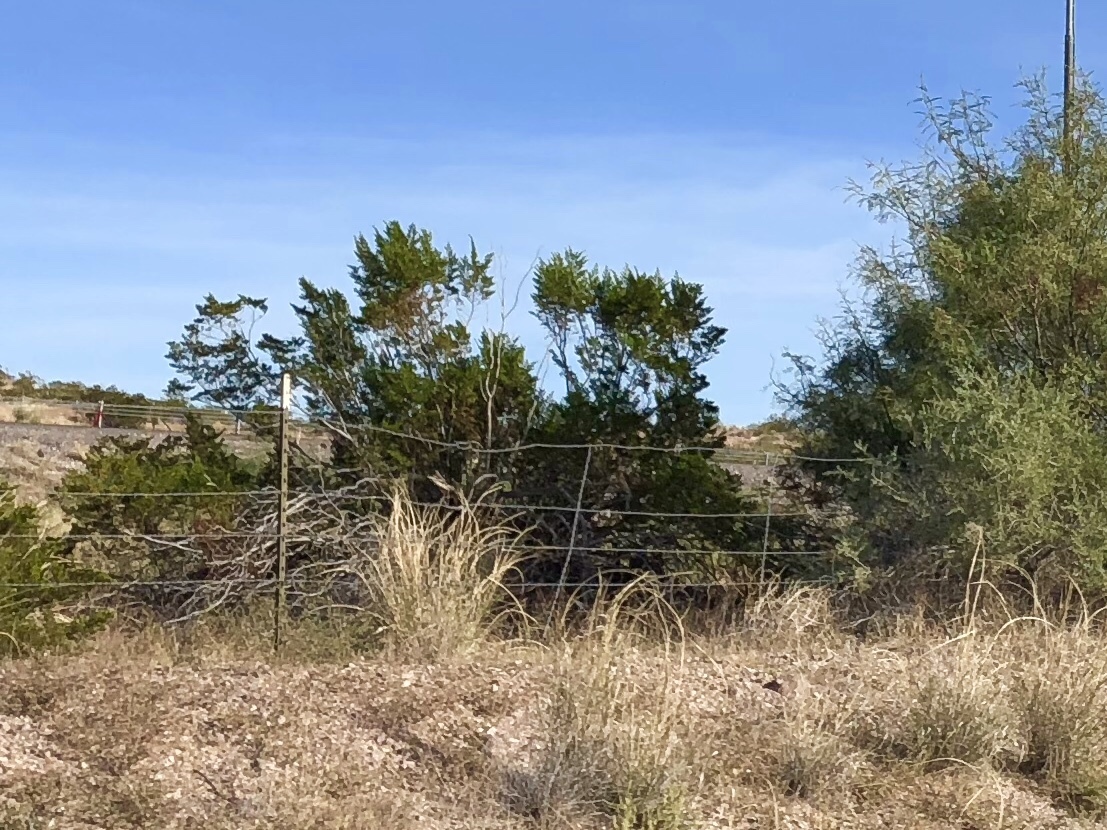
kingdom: Plantae
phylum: Tracheophyta
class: Magnoliopsida
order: Zygophyllales
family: Zygophyllaceae
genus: Larrea
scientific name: Larrea tridentata
